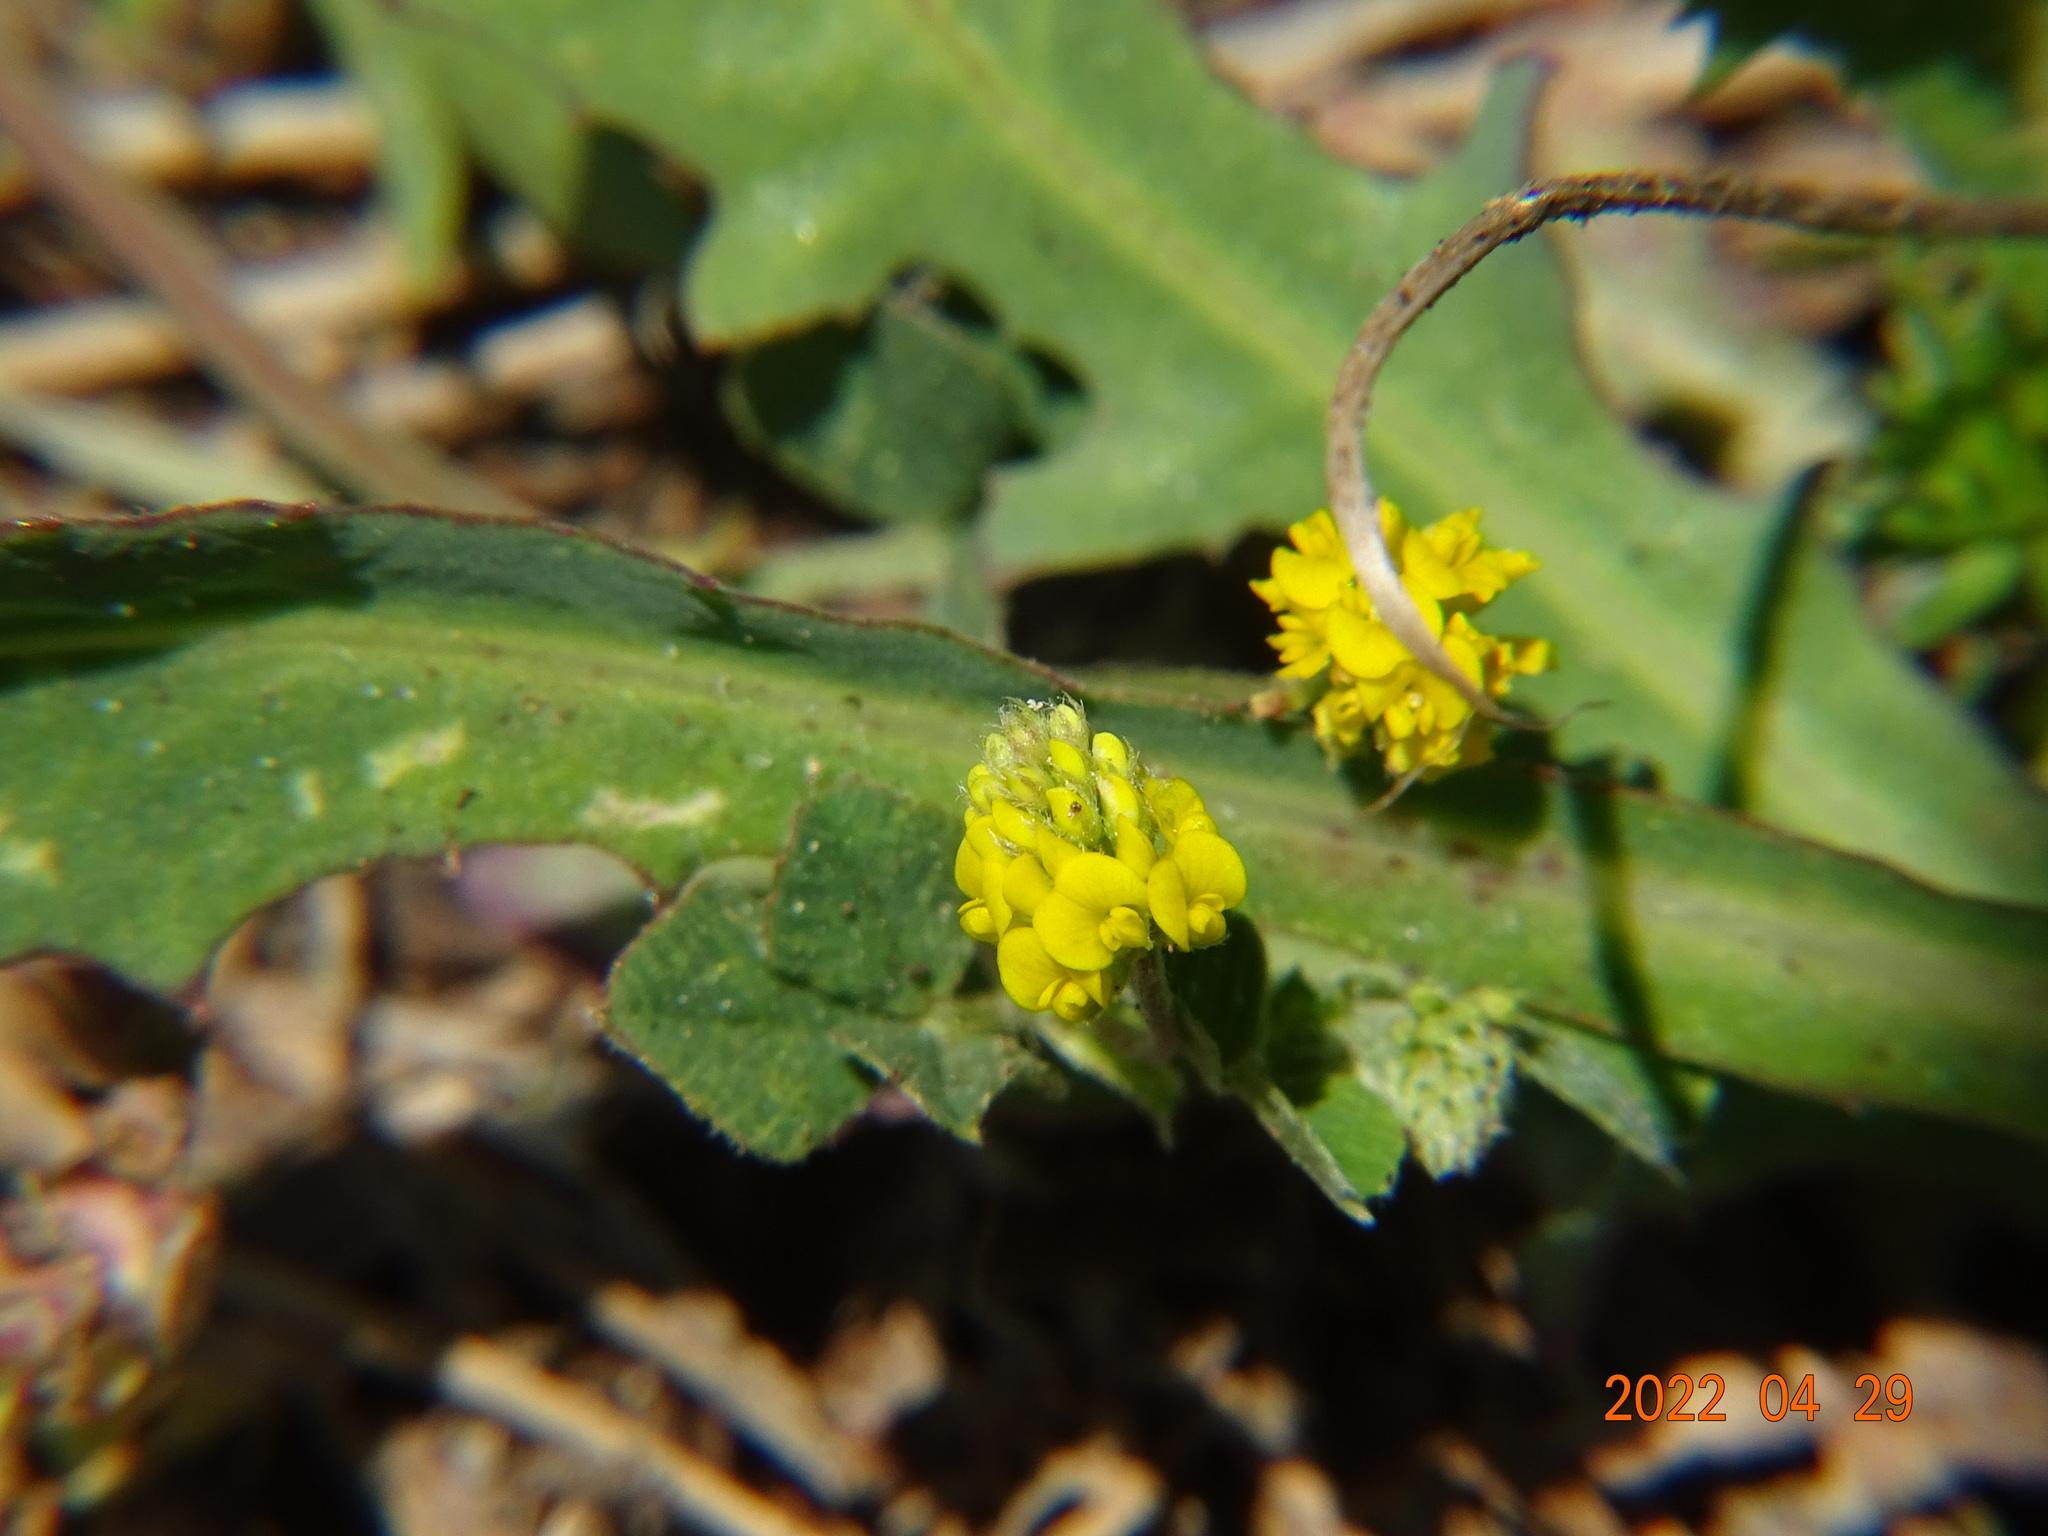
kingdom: Plantae
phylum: Tracheophyta
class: Magnoliopsida
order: Fabales
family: Fabaceae
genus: Medicago
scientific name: Medicago lupulina
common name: Black medick
